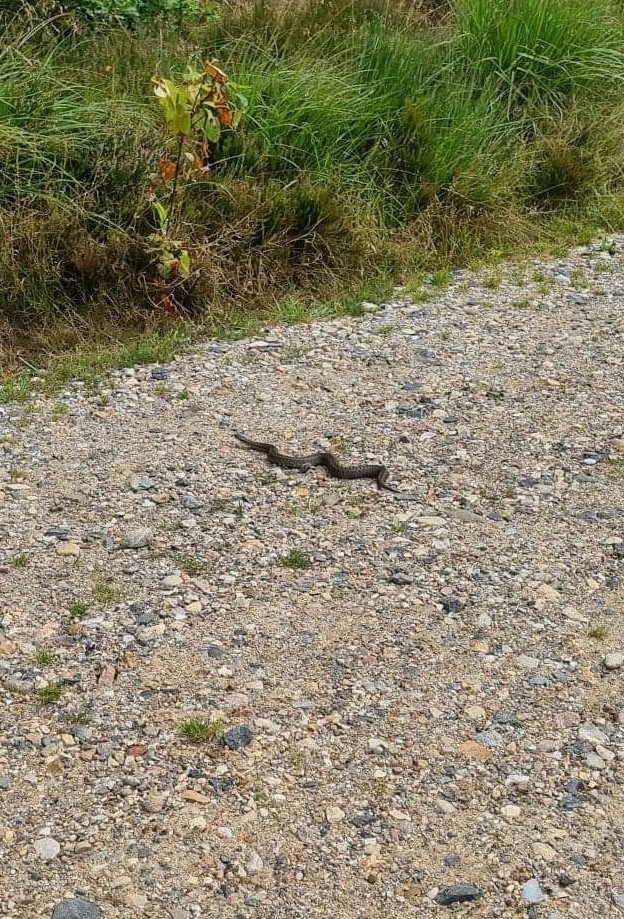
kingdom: Animalia
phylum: Chordata
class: Squamata
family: Viperidae
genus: Vipera
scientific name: Vipera berus
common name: Adder
